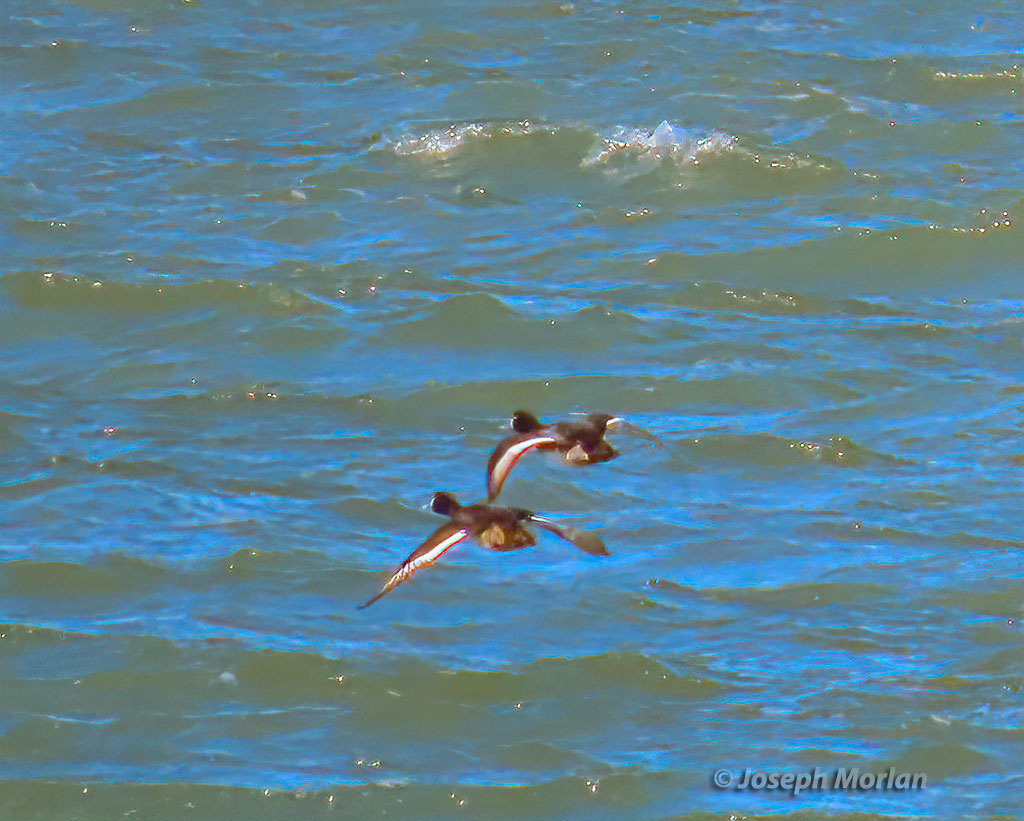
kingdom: Animalia
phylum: Chordata
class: Aves
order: Anseriformes
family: Anatidae
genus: Aythya
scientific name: Aythya marila
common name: Greater scaup
